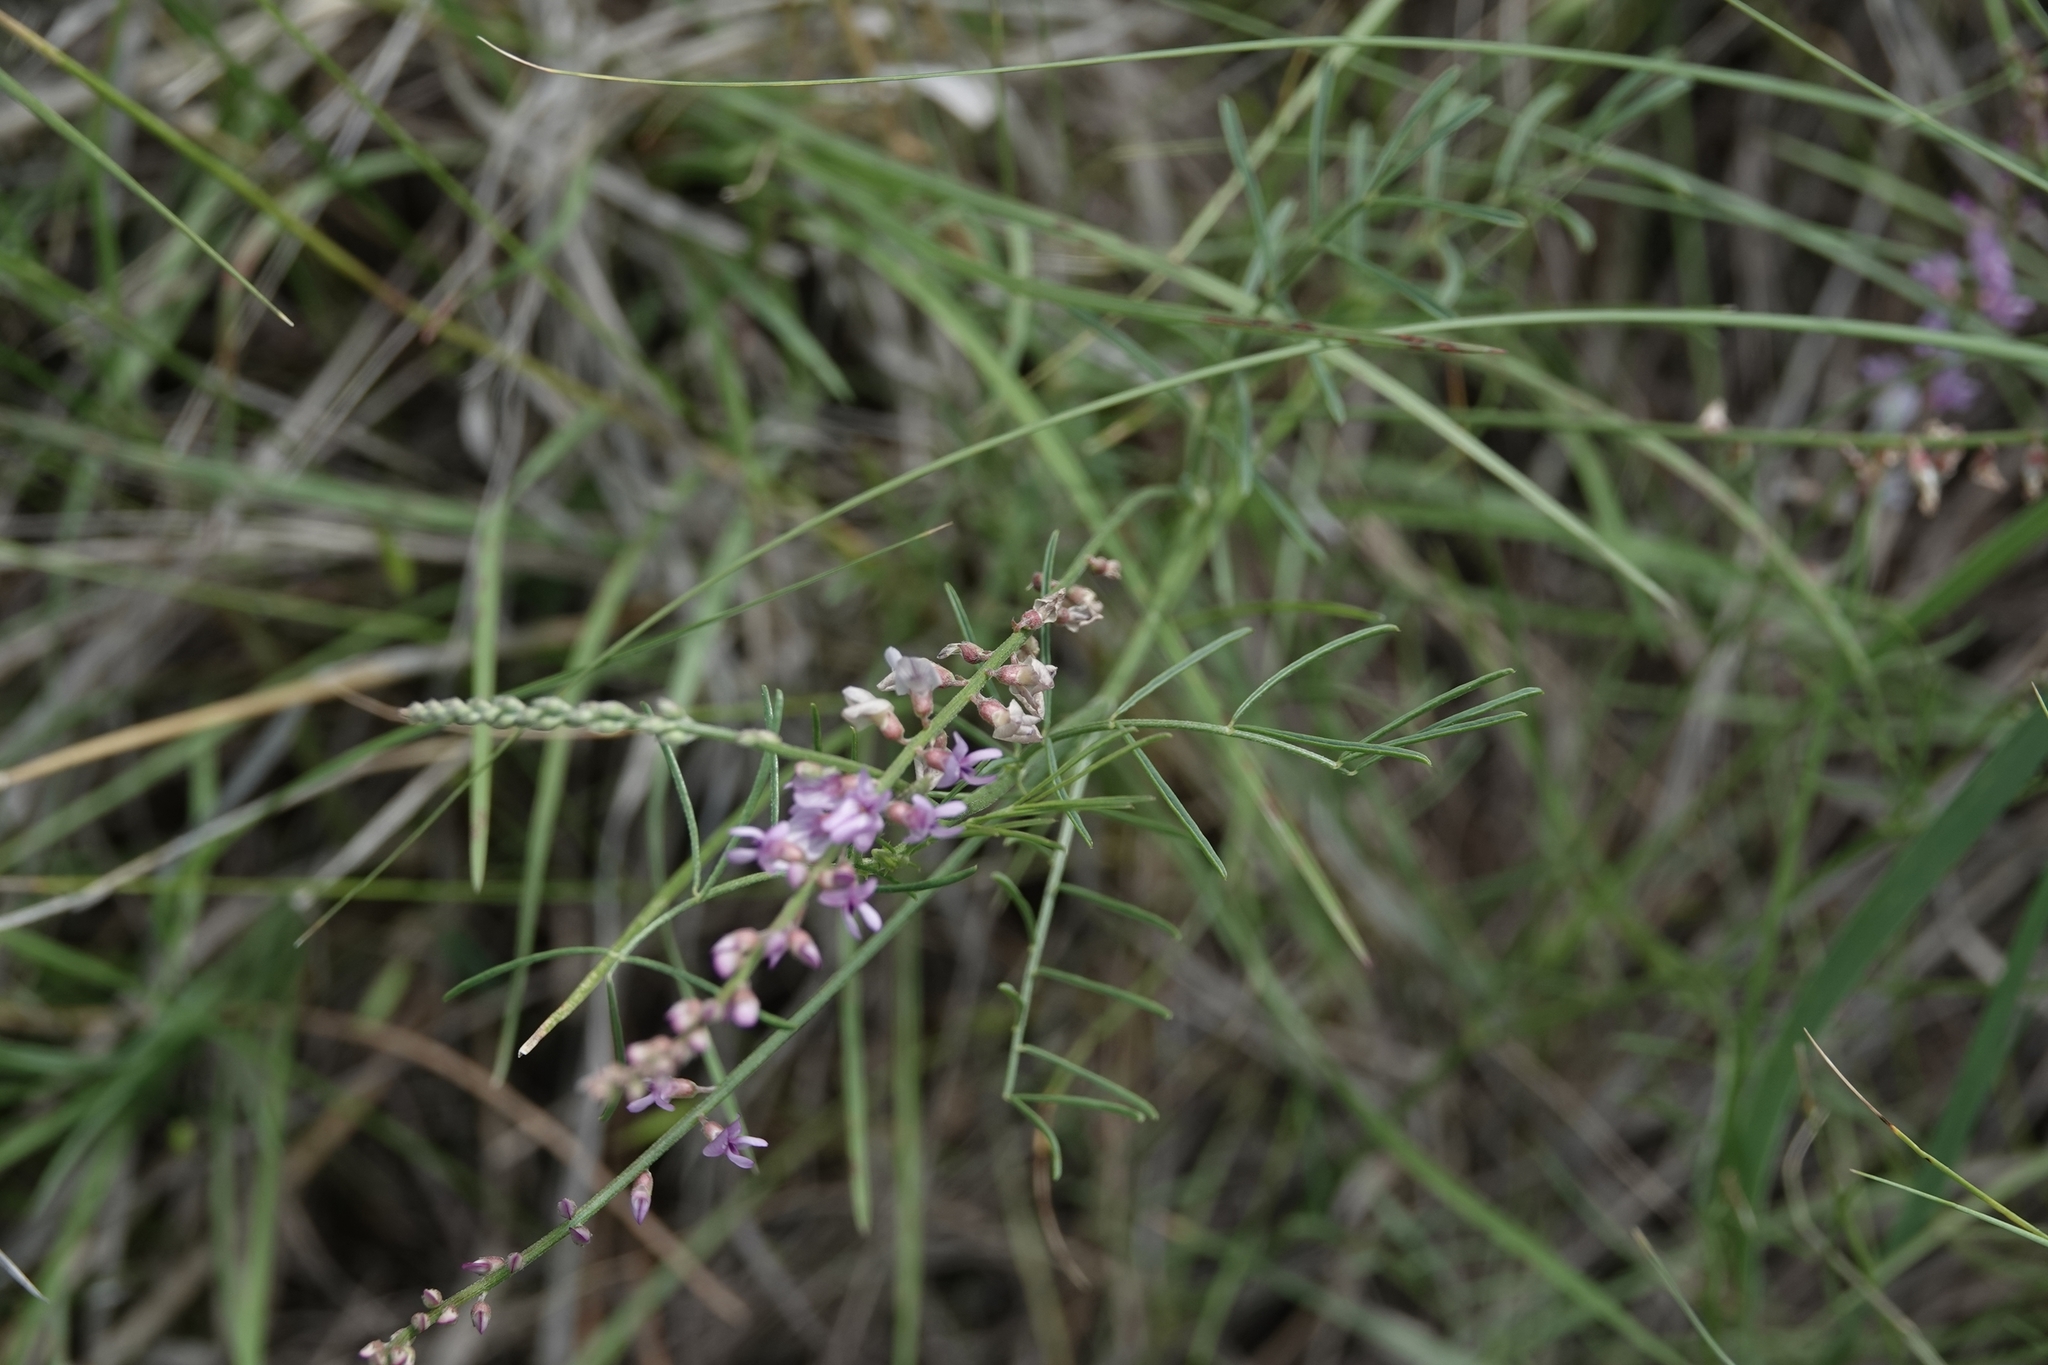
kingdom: Plantae
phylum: Tracheophyta
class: Magnoliopsida
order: Fabales
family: Fabaceae
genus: Astragalus
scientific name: Astragalus gracilis
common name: Slender milk-vetch
